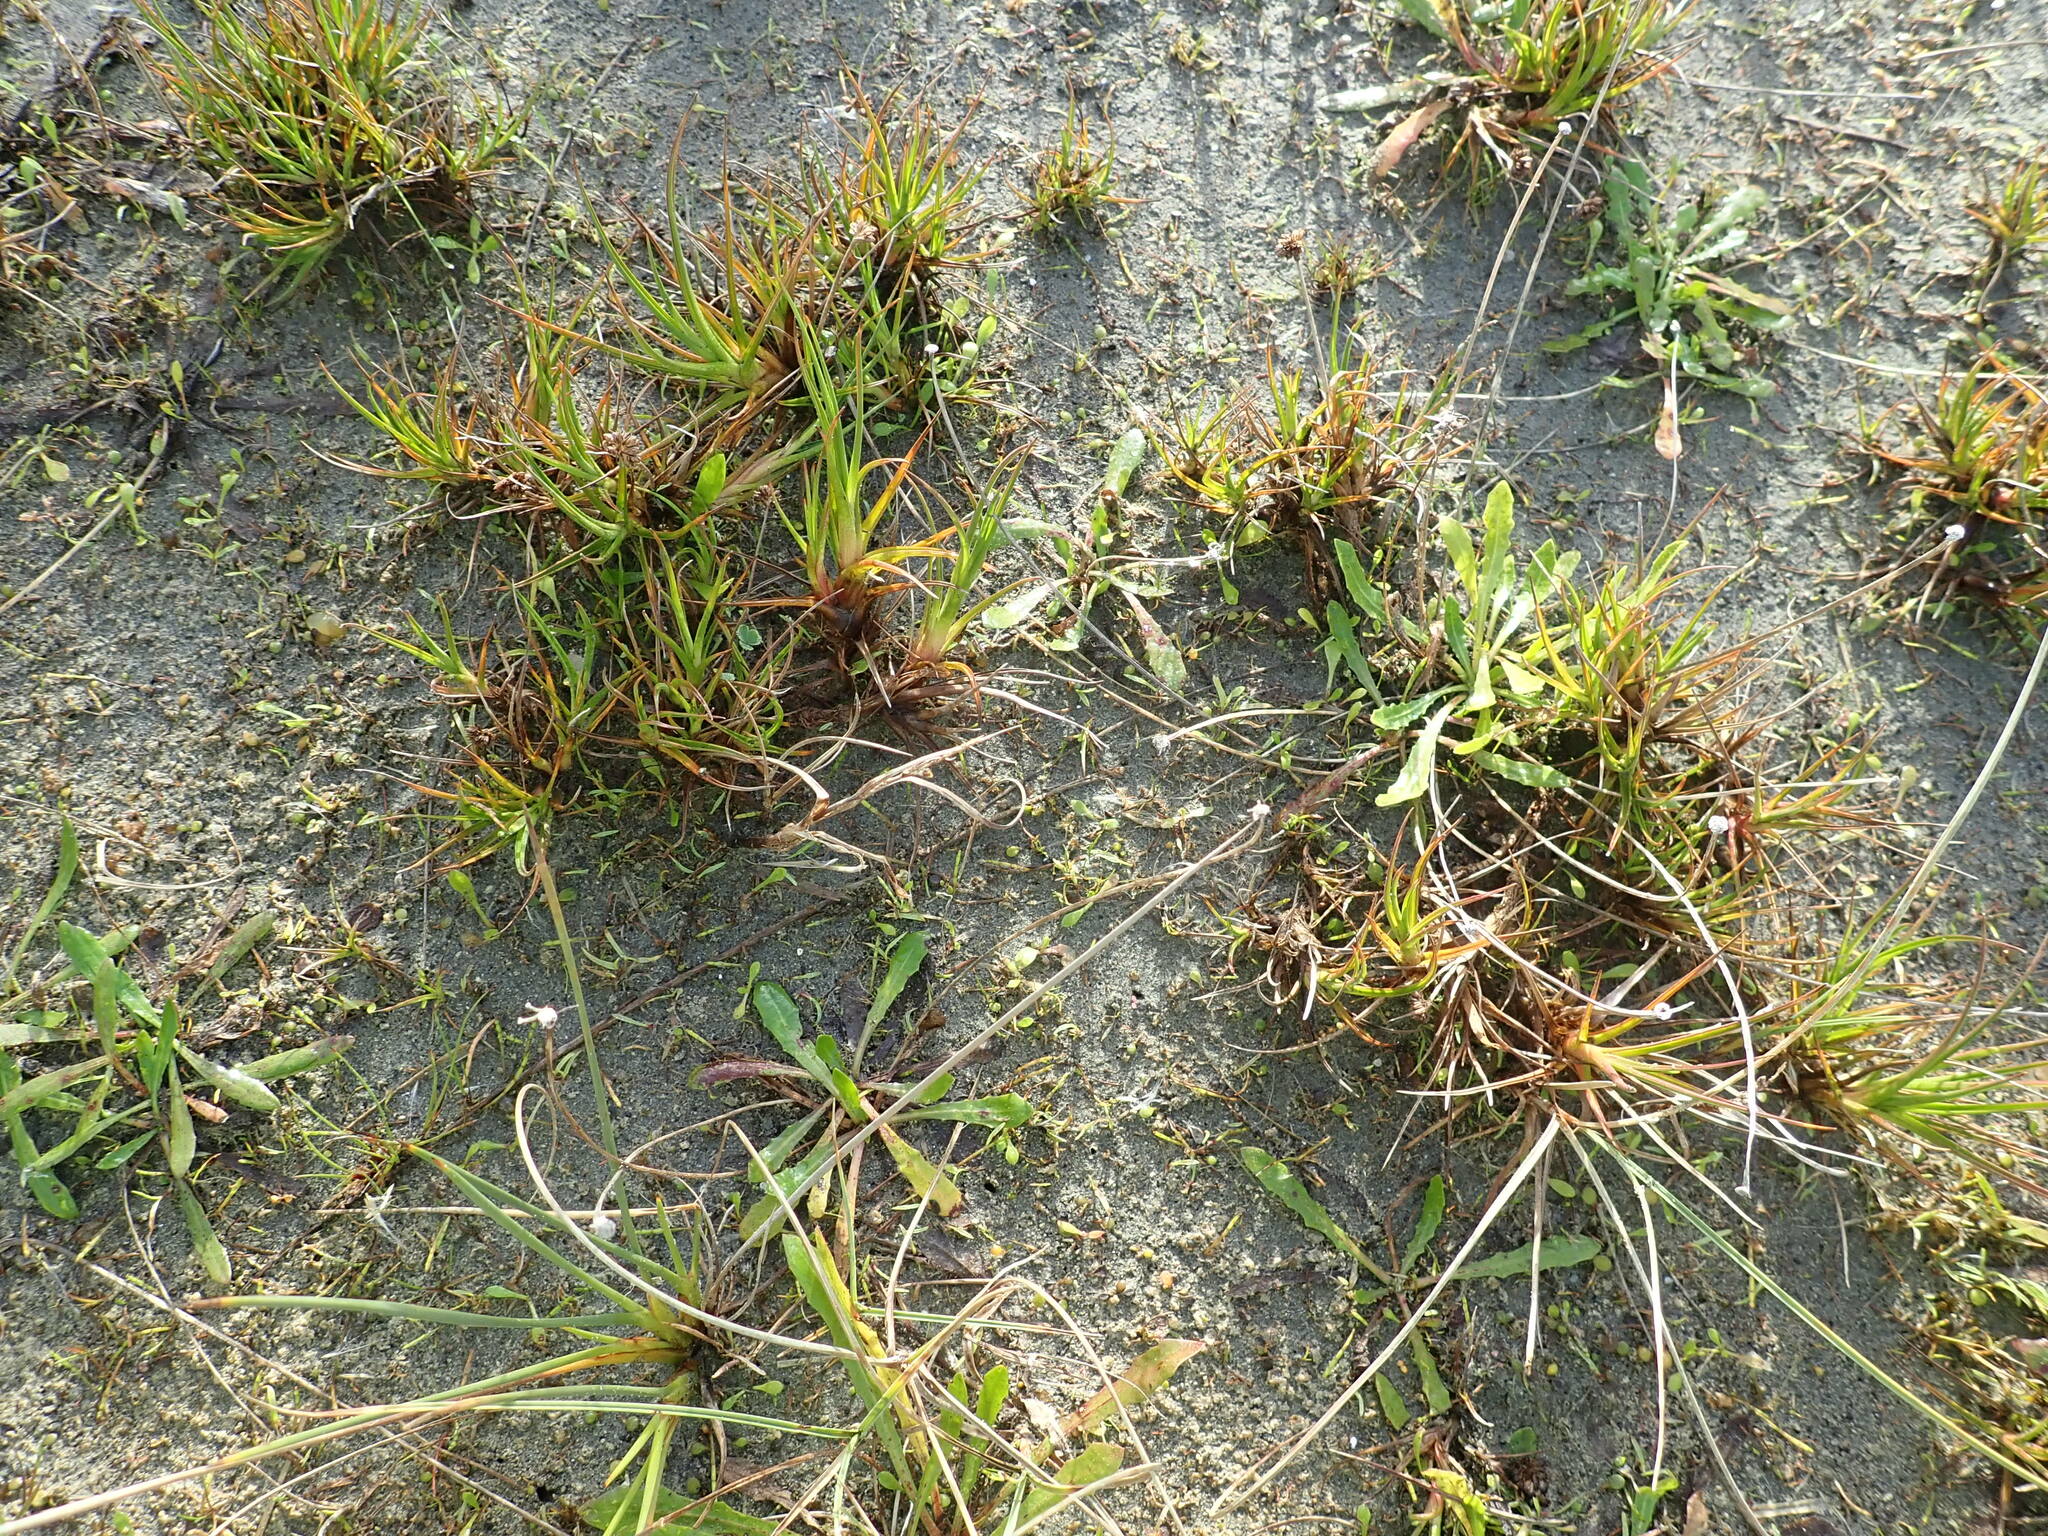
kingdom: Plantae
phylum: Tracheophyta
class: Liliopsida
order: Poales
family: Juncaceae
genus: Juncus
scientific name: Juncus caespiticius
